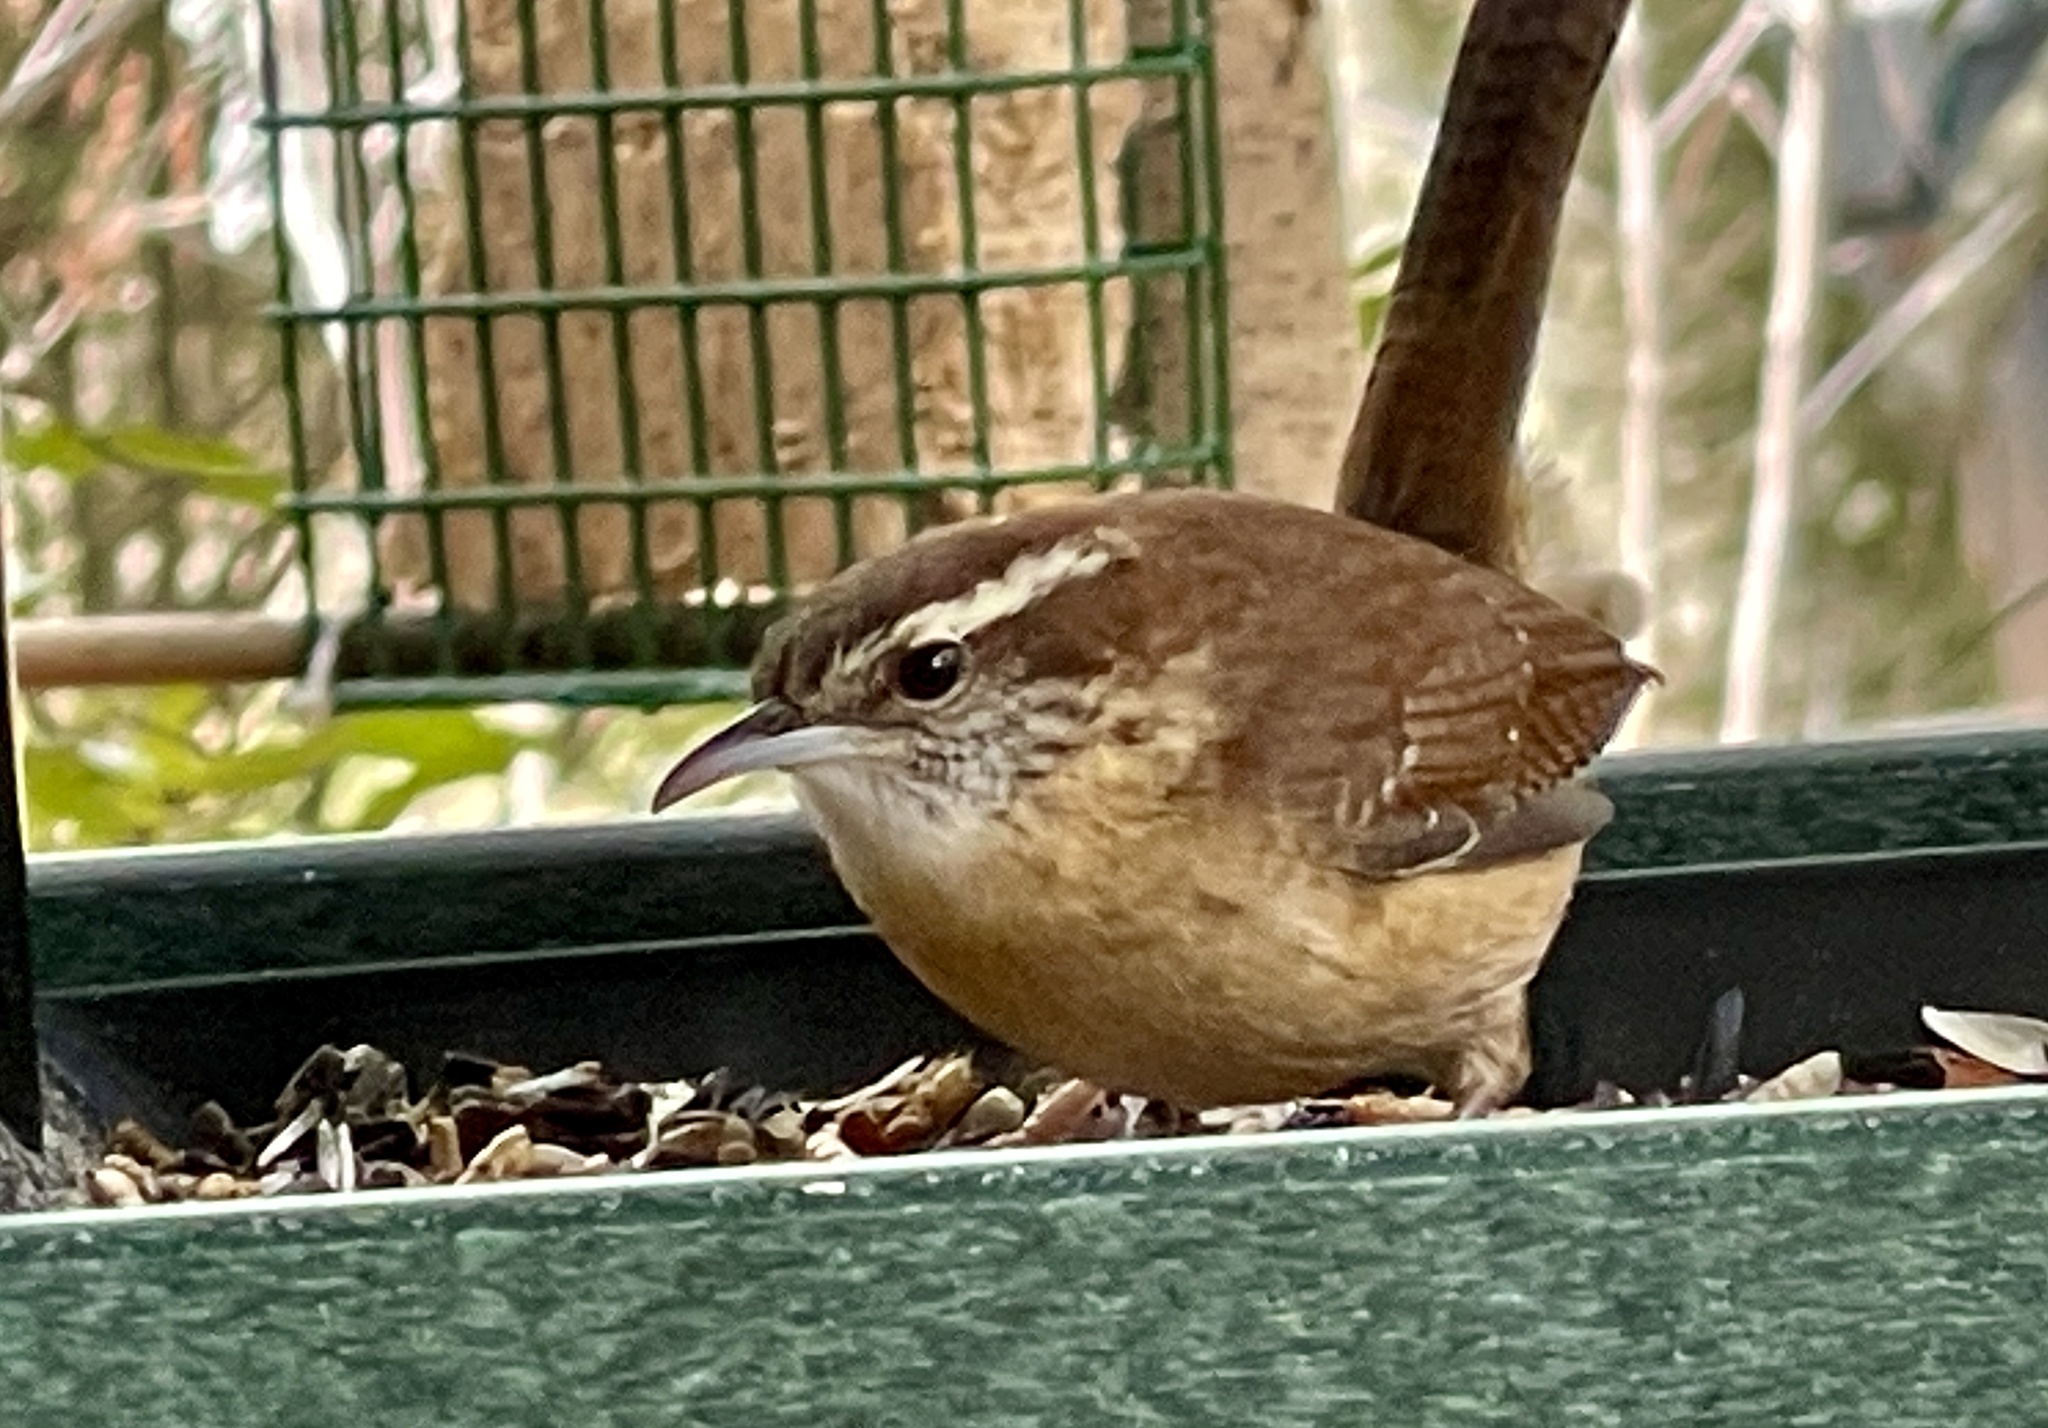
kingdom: Animalia
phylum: Chordata
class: Aves
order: Passeriformes
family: Troglodytidae
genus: Thryothorus
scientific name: Thryothorus ludovicianus
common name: Carolina wren
